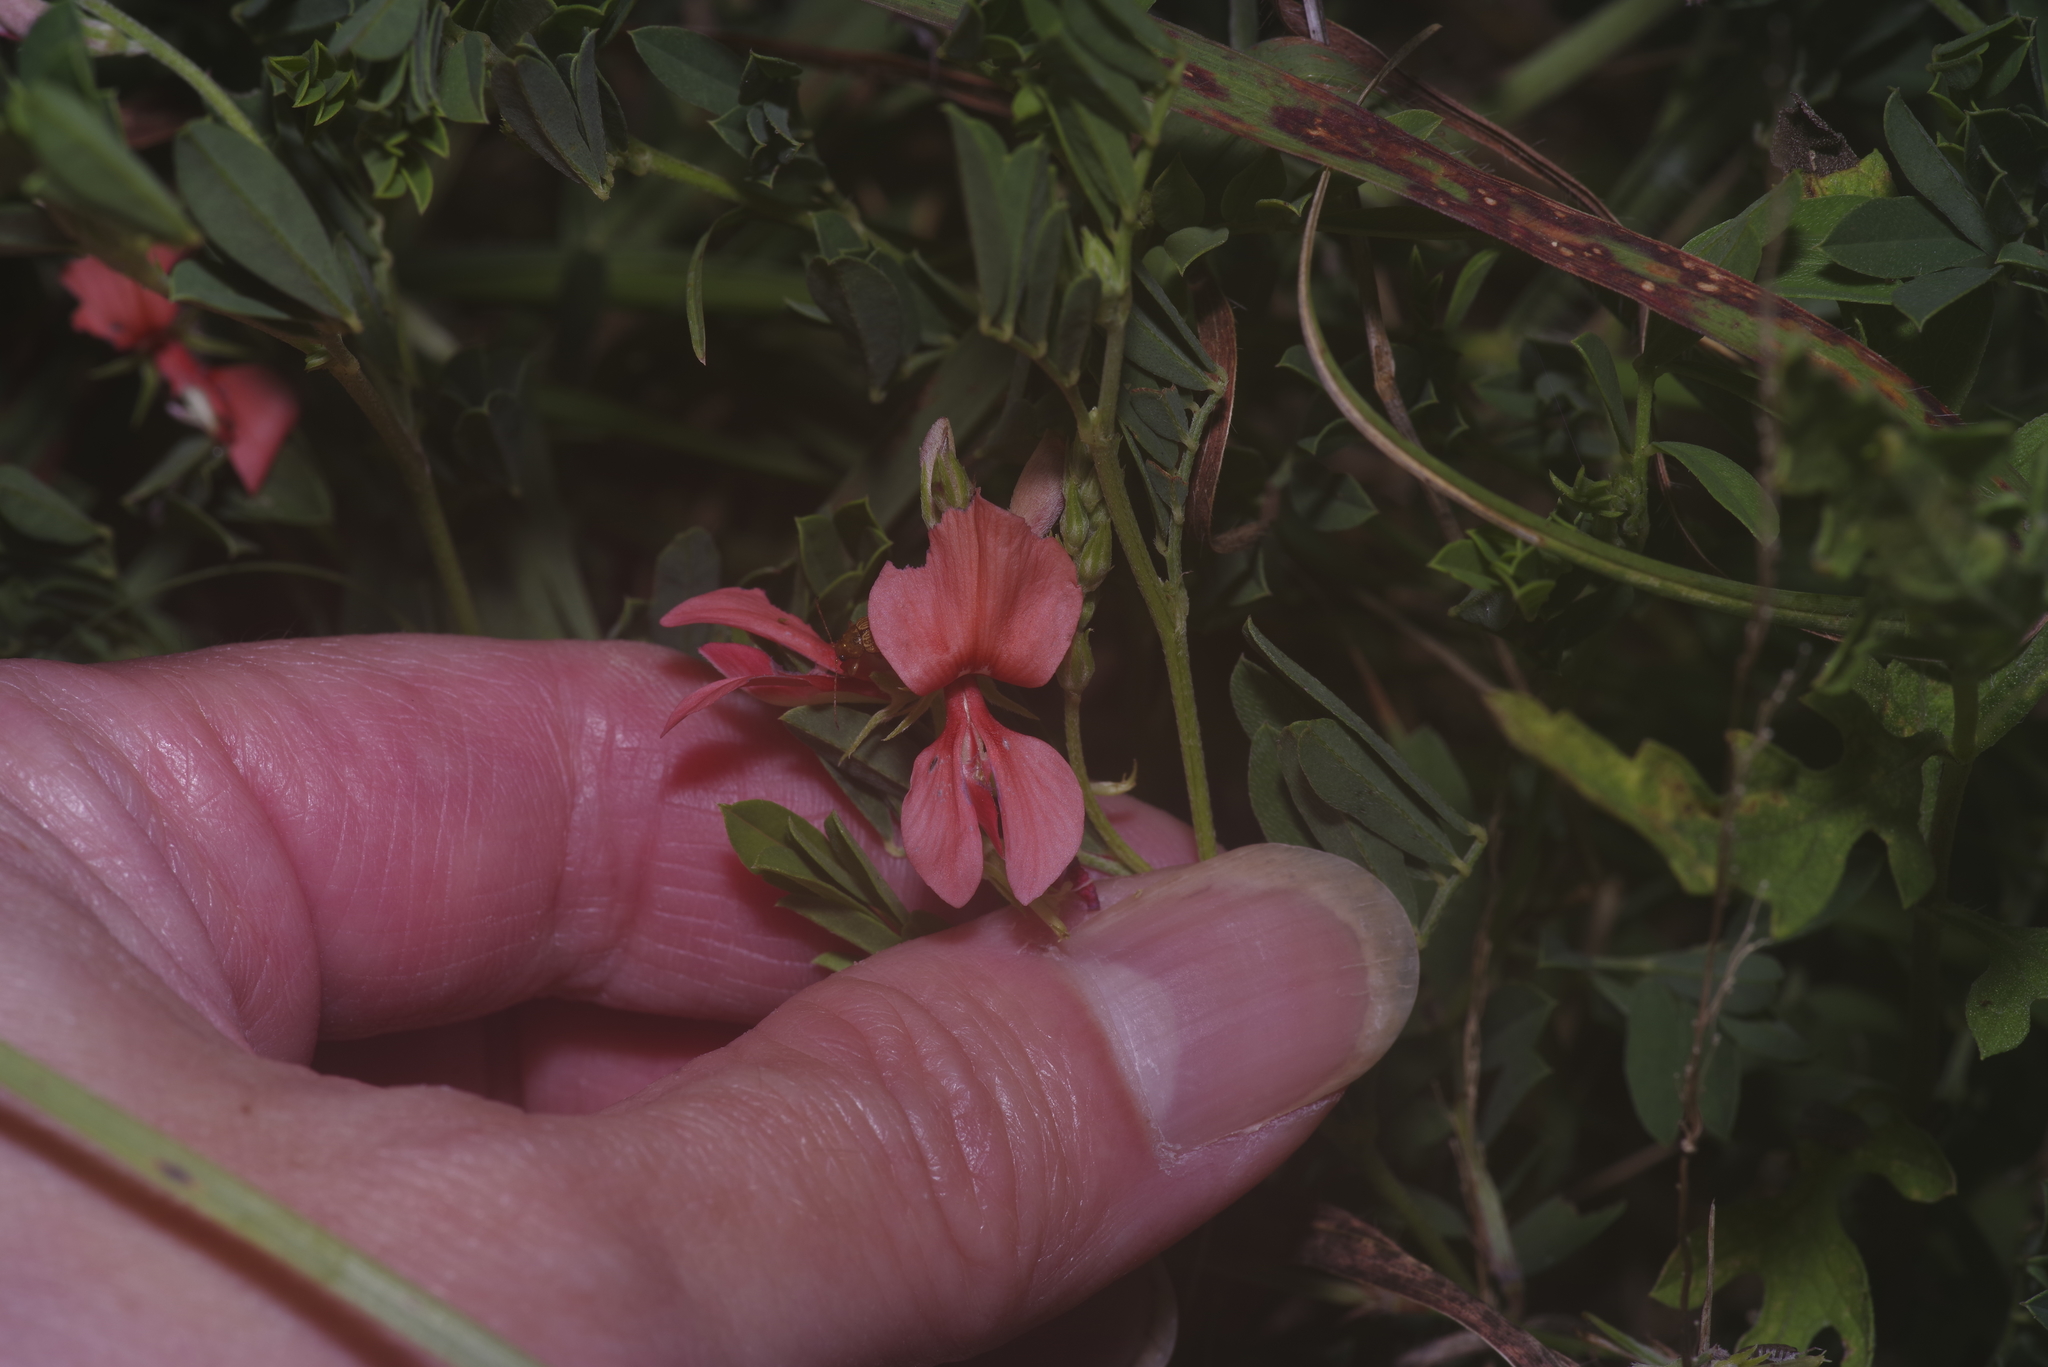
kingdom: Plantae
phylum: Tracheophyta
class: Magnoliopsida
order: Fabales
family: Fabaceae
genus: Indigofera
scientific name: Indigofera miniata
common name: Coast indigo
